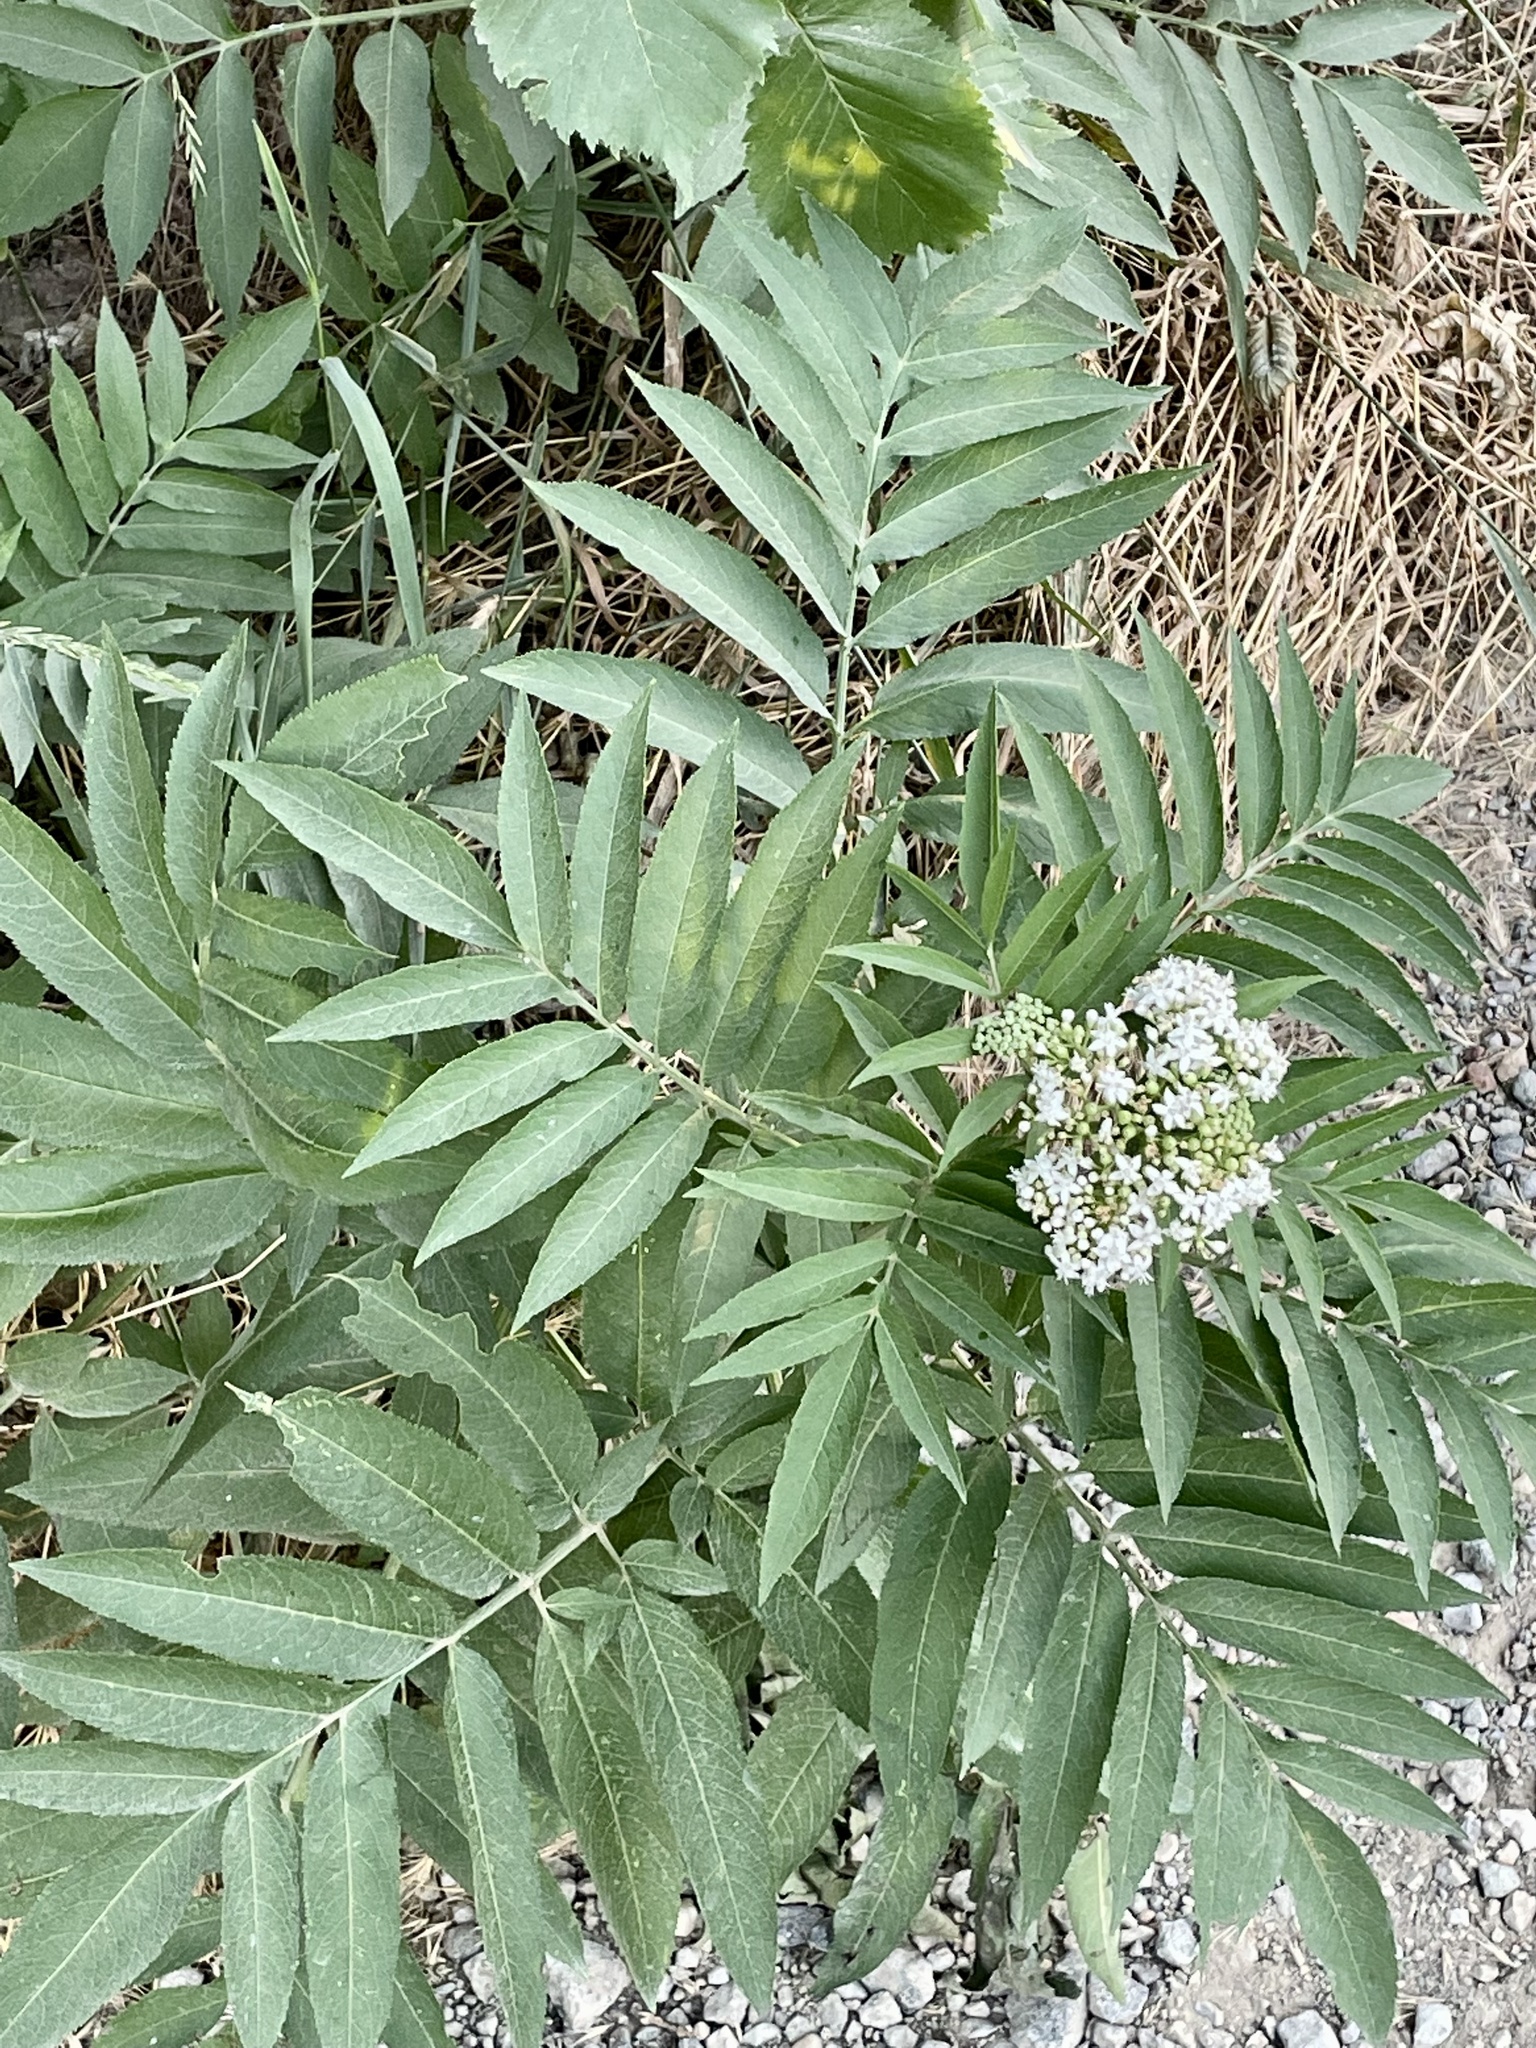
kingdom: Plantae
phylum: Tracheophyta
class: Magnoliopsida
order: Dipsacales
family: Viburnaceae
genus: Sambucus
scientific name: Sambucus ebulus
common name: Dwarf elder
